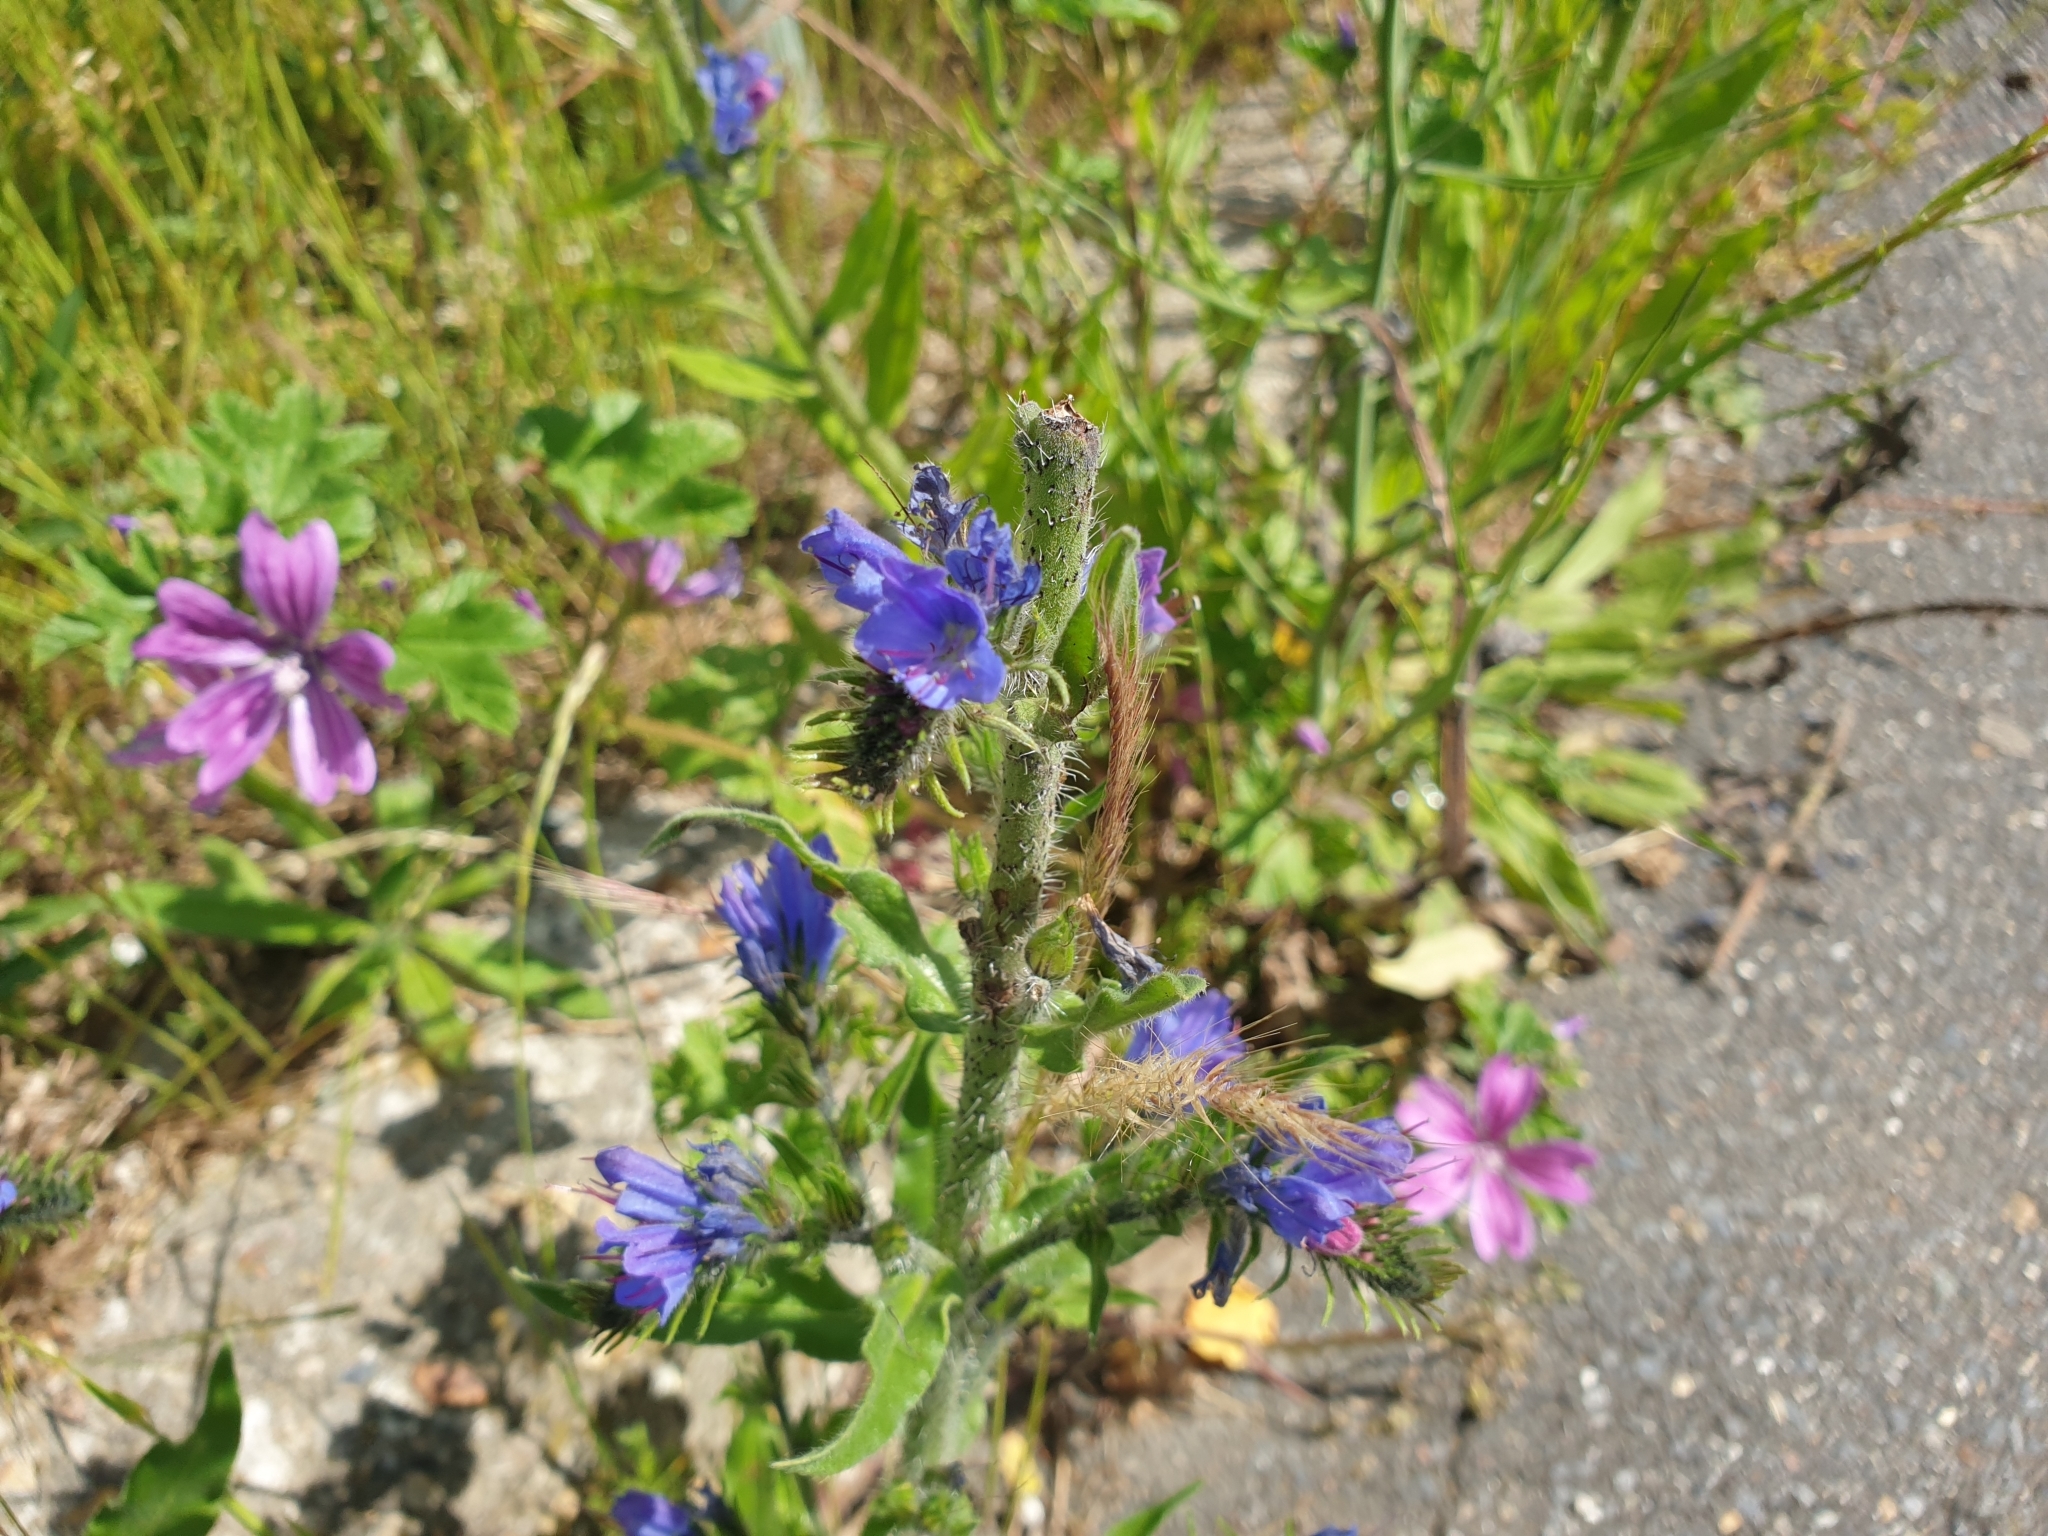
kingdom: Plantae
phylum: Tracheophyta
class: Magnoliopsida
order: Boraginales
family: Boraginaceae
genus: Echium
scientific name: Echium vulgare
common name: Common viper's bugloss
